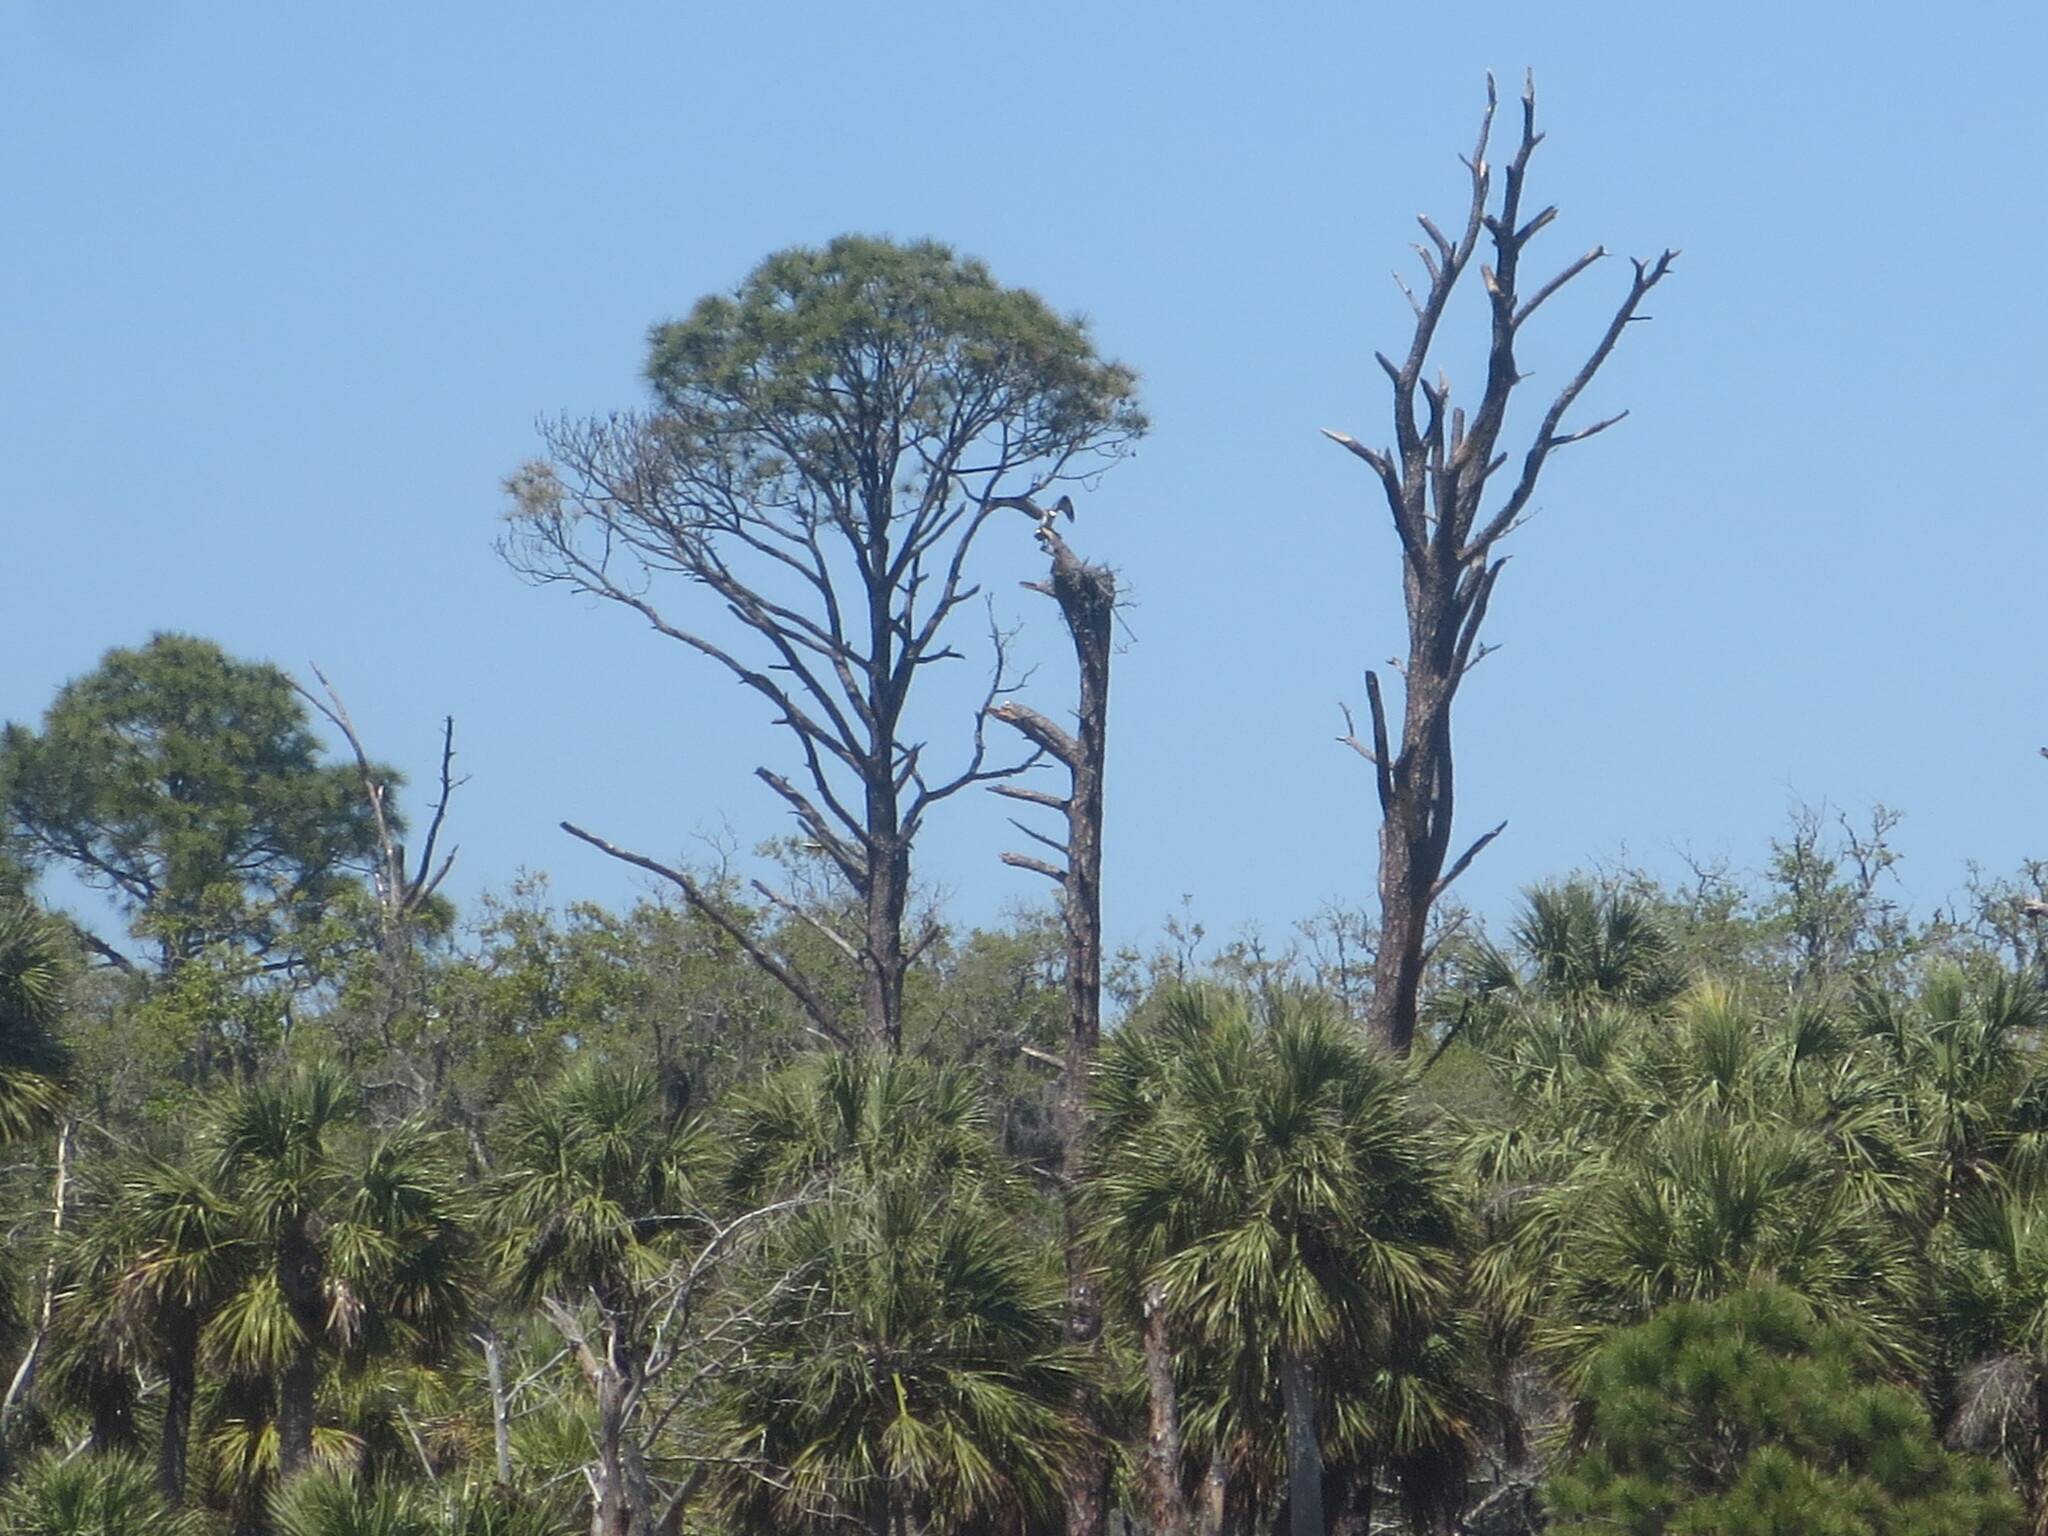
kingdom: Animalia
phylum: Chordata
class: Aves
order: Accipitriformes
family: Pandionidae
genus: Pandion
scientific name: Pandion haliaetus
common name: Osprey
